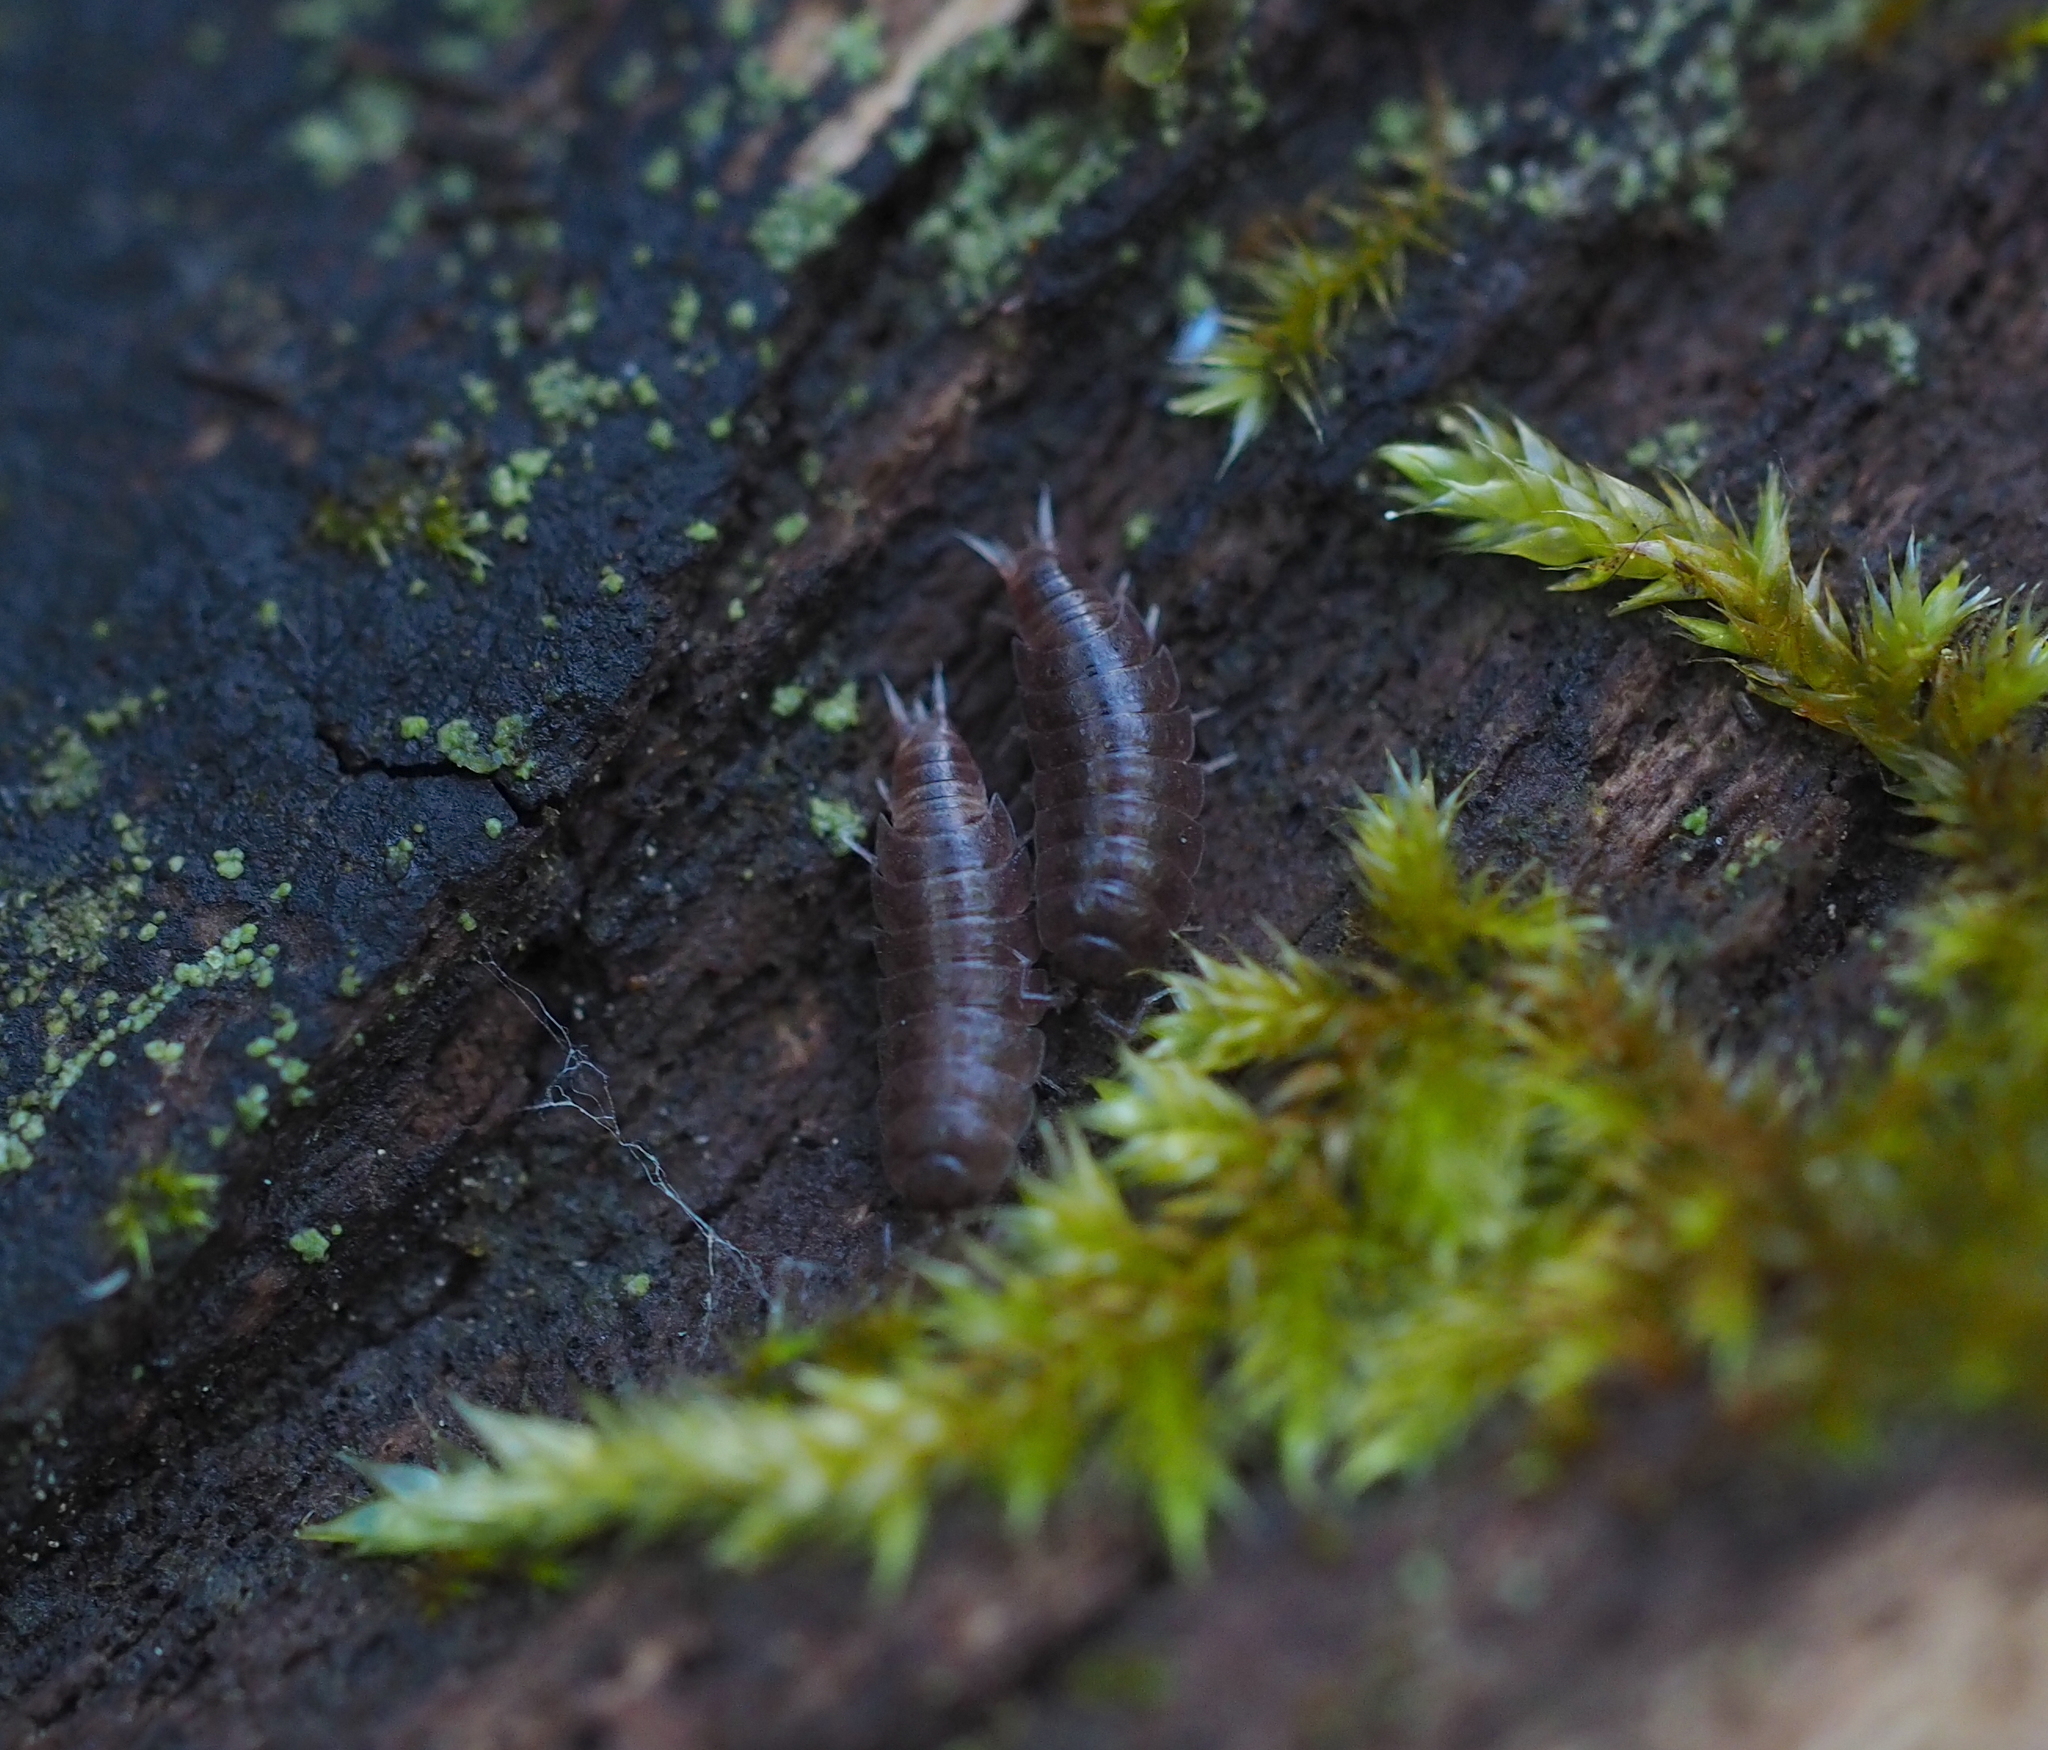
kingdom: Animalia
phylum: Arthropoda
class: Malacostraca
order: Isopoda
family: Trichoniscidae
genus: Hyloniscus
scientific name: Hyloniscus riparius
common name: Isopod
